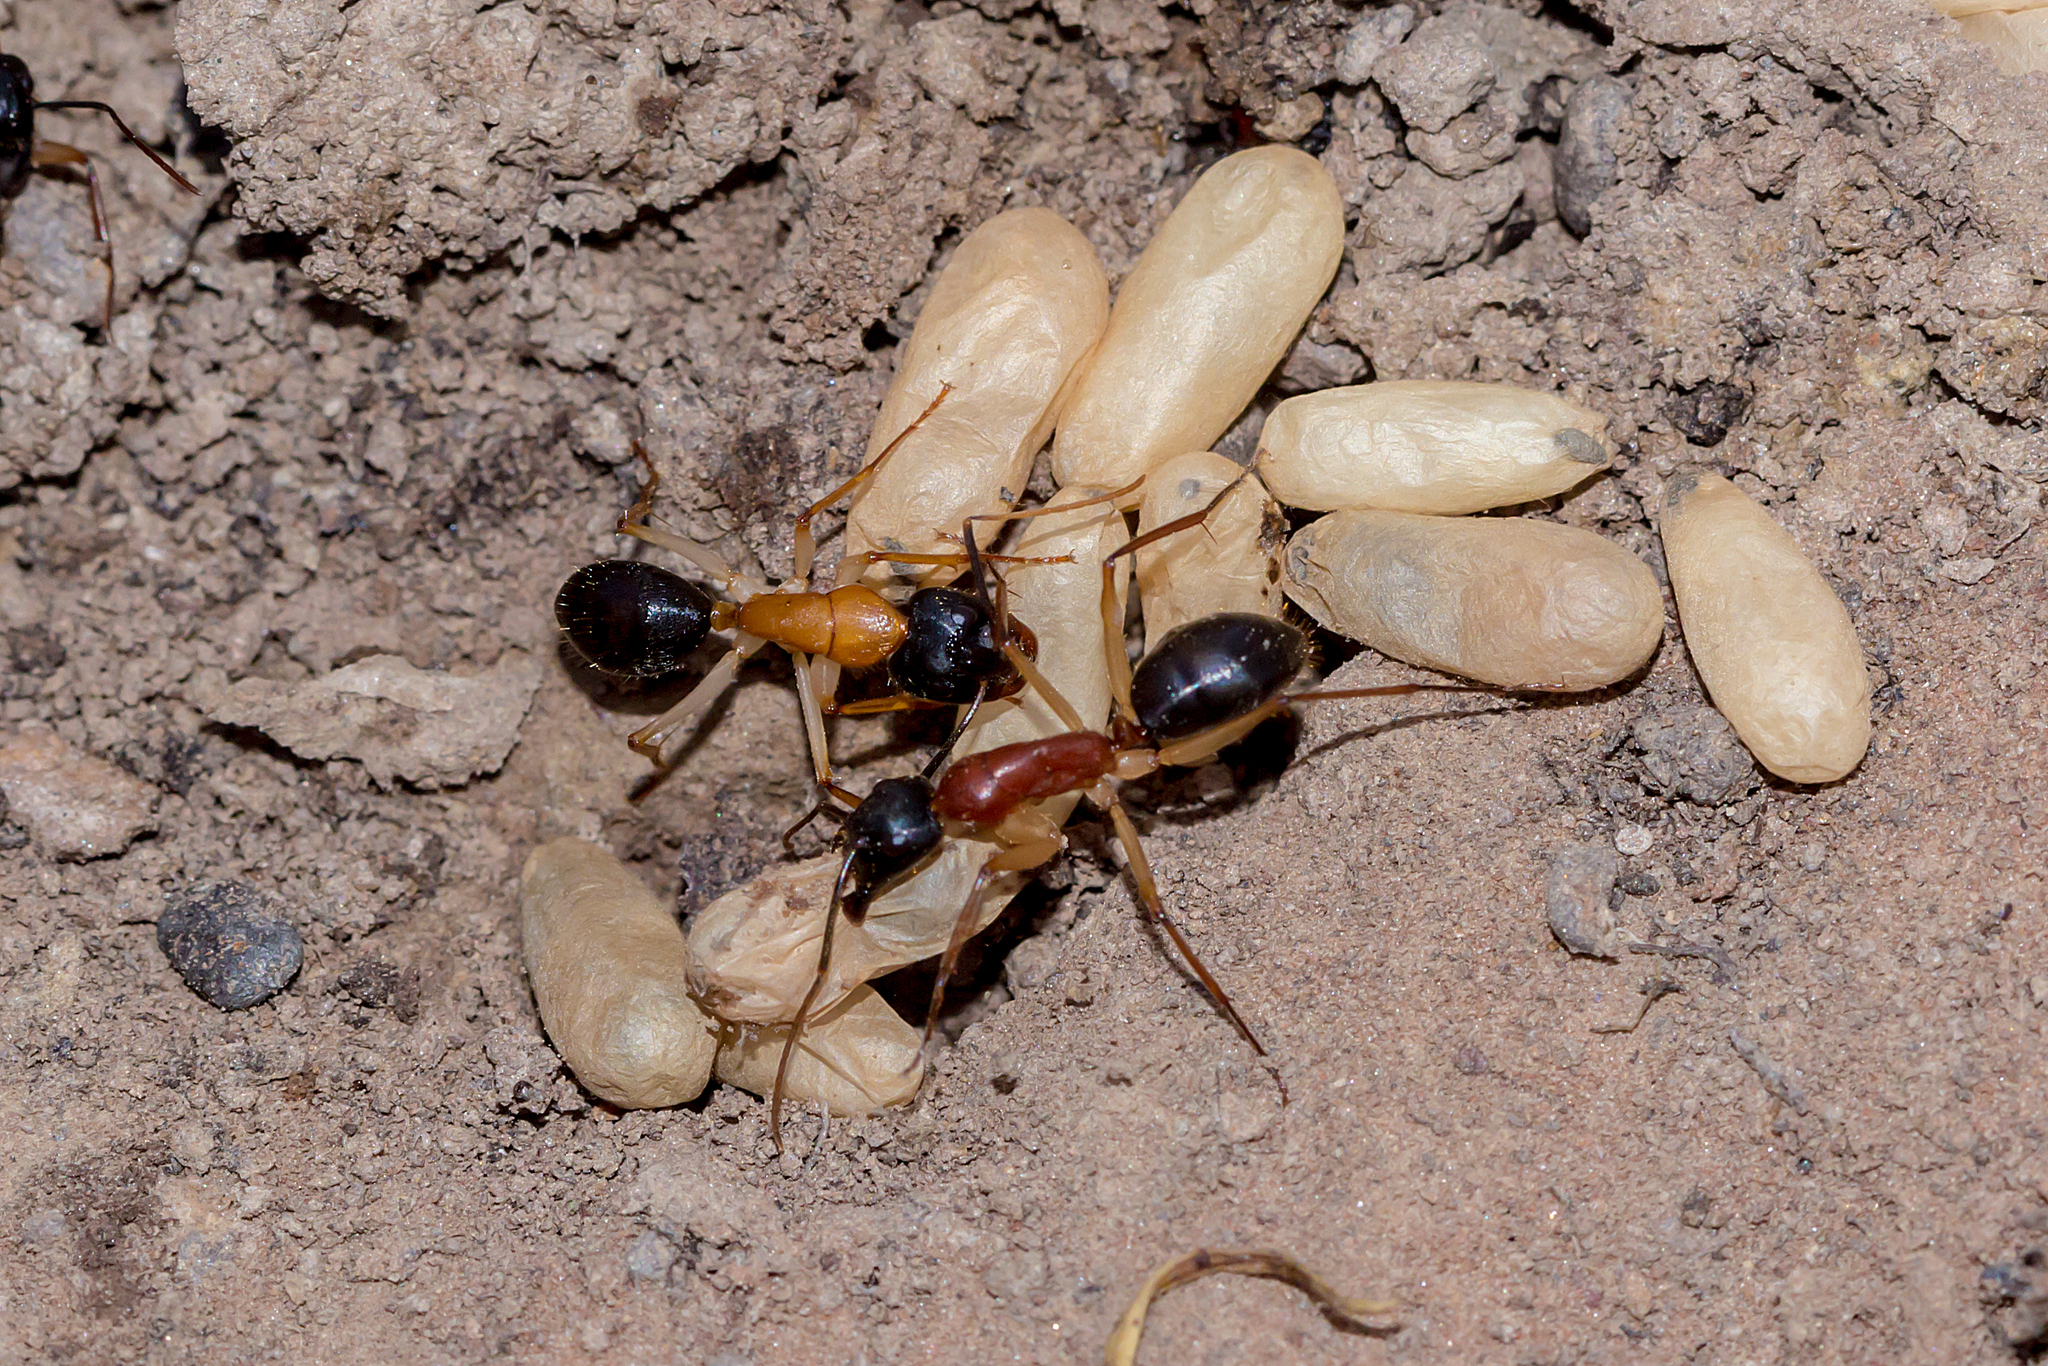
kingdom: Animalia
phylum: Arthropoda
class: Insecta
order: Hymenoptera
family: Formicidae
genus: Camponotus
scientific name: Camponotus nigriceps
